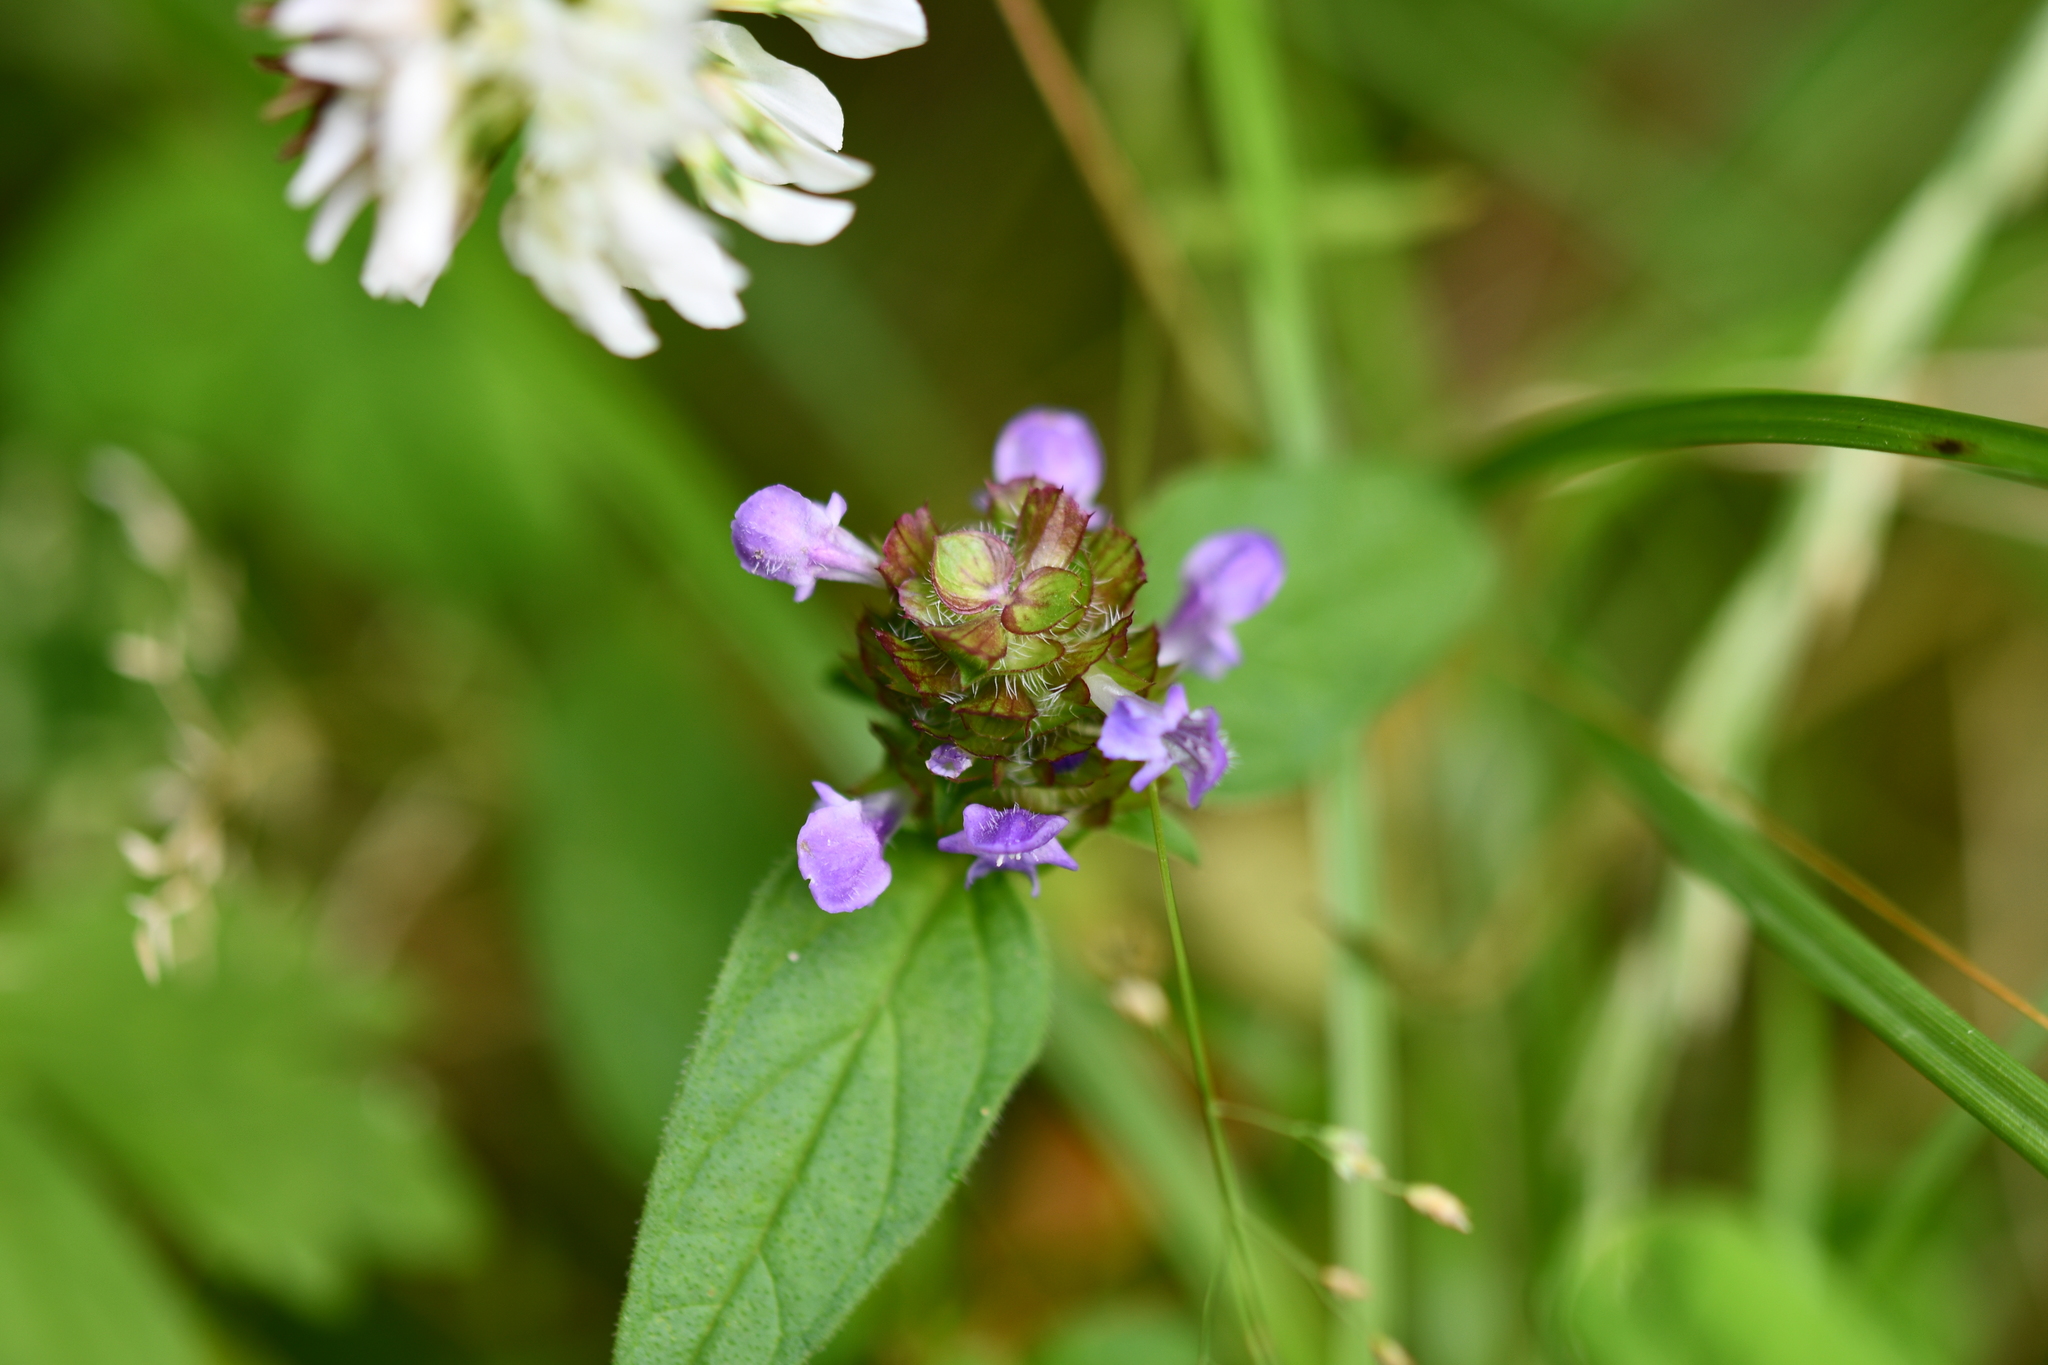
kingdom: Plantae
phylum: Tracheophyta
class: Magnoliopsida
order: Lamiales
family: Lamiaceae
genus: Prunella
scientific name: Prunella vulgaris
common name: Heal-all
